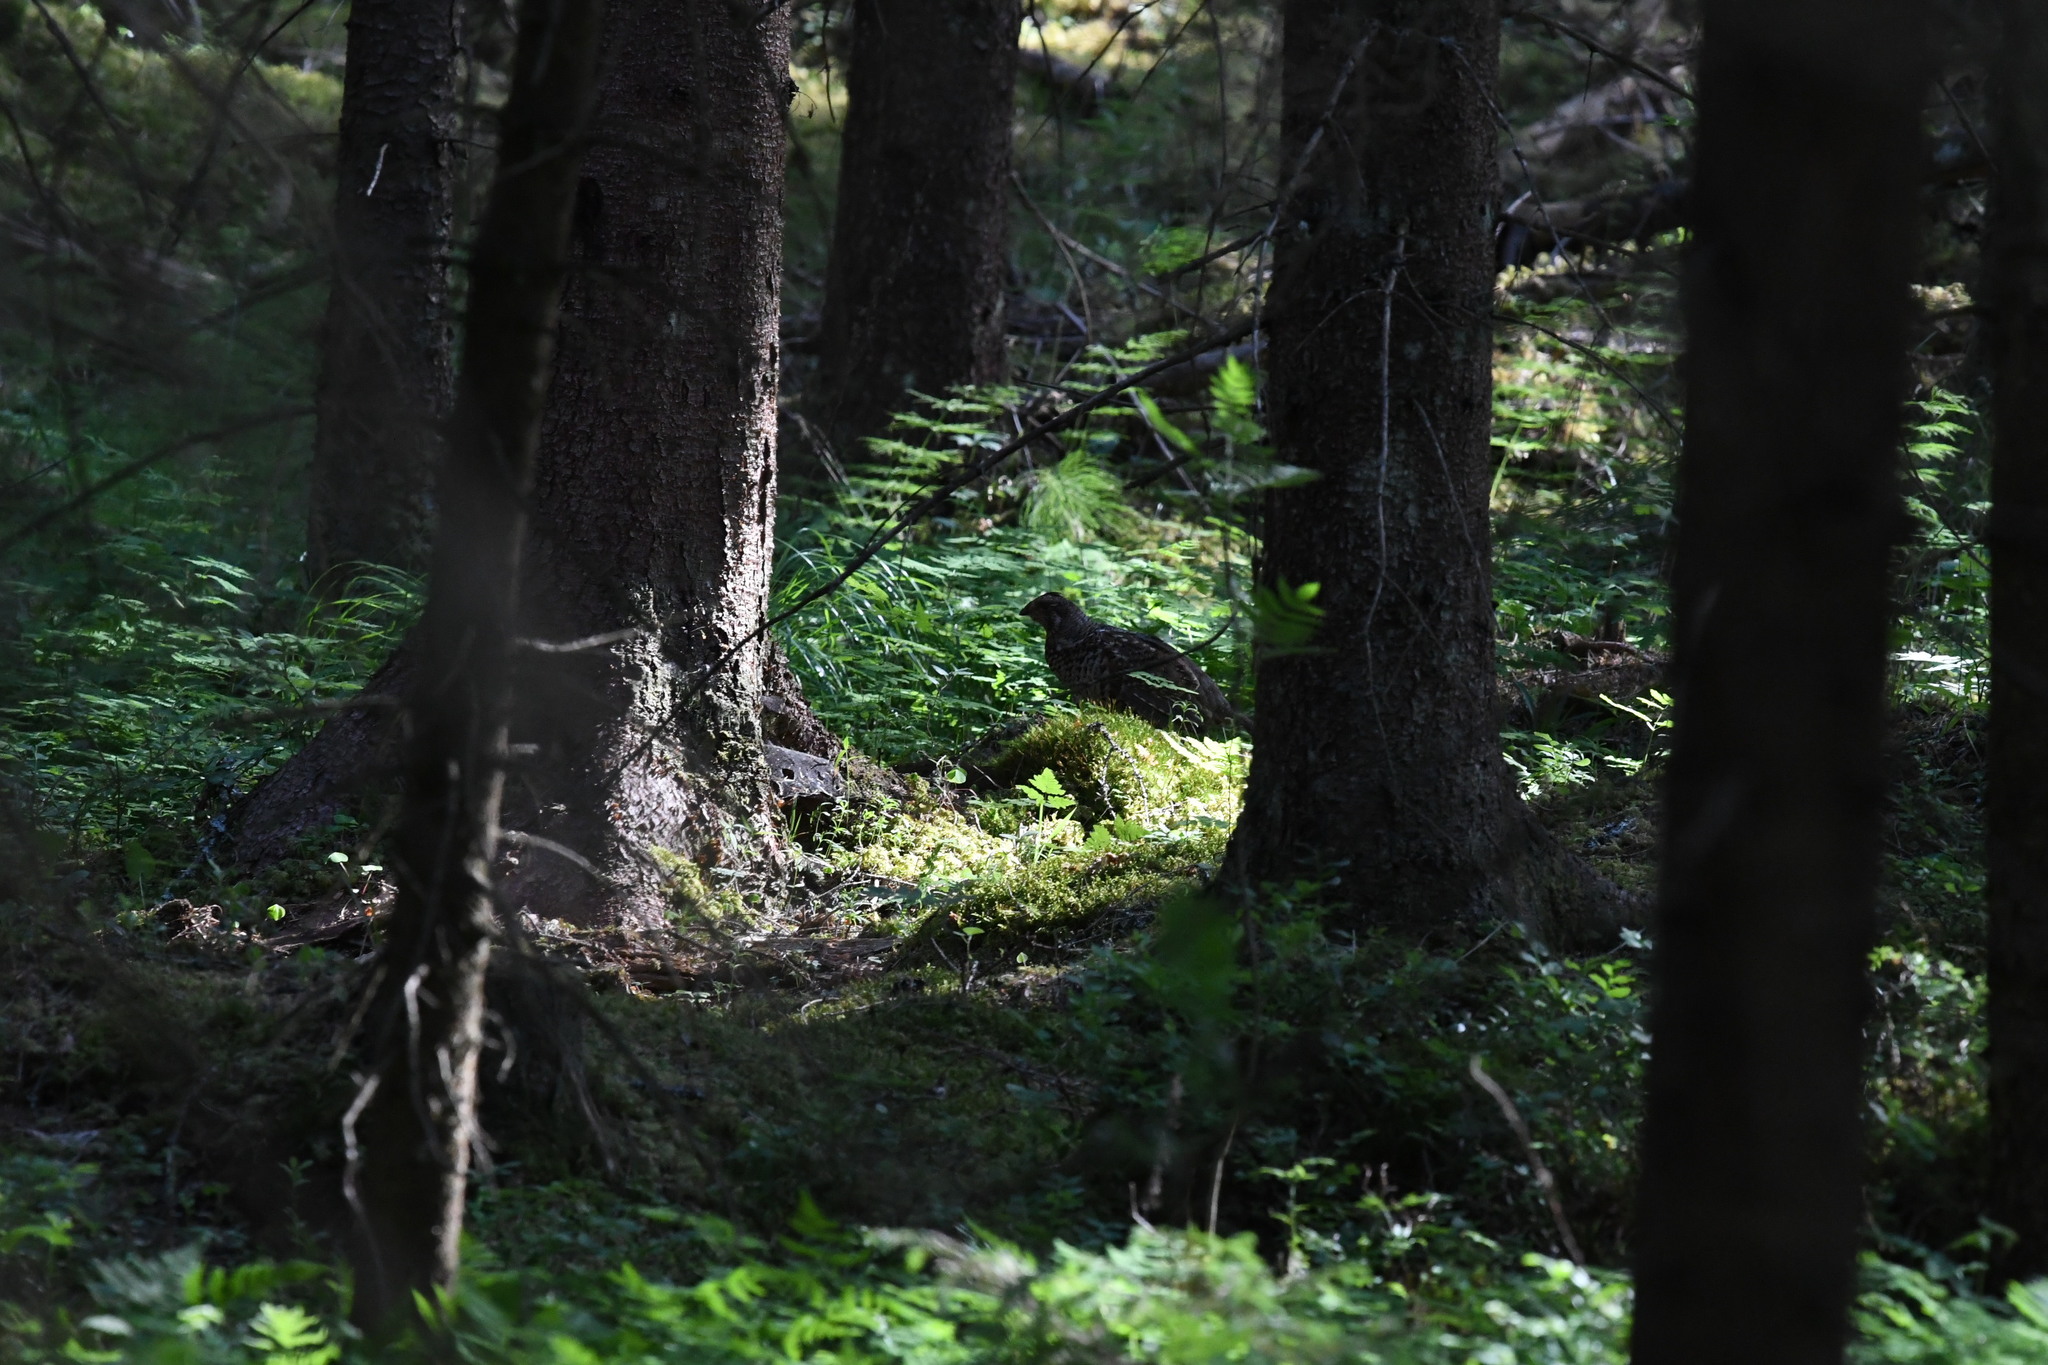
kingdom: Animalia
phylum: Chordata
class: Aves
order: Galliformes
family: Phasianidae
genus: Tetrastes
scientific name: Tetrastes bonasia
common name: Hazel grouse
